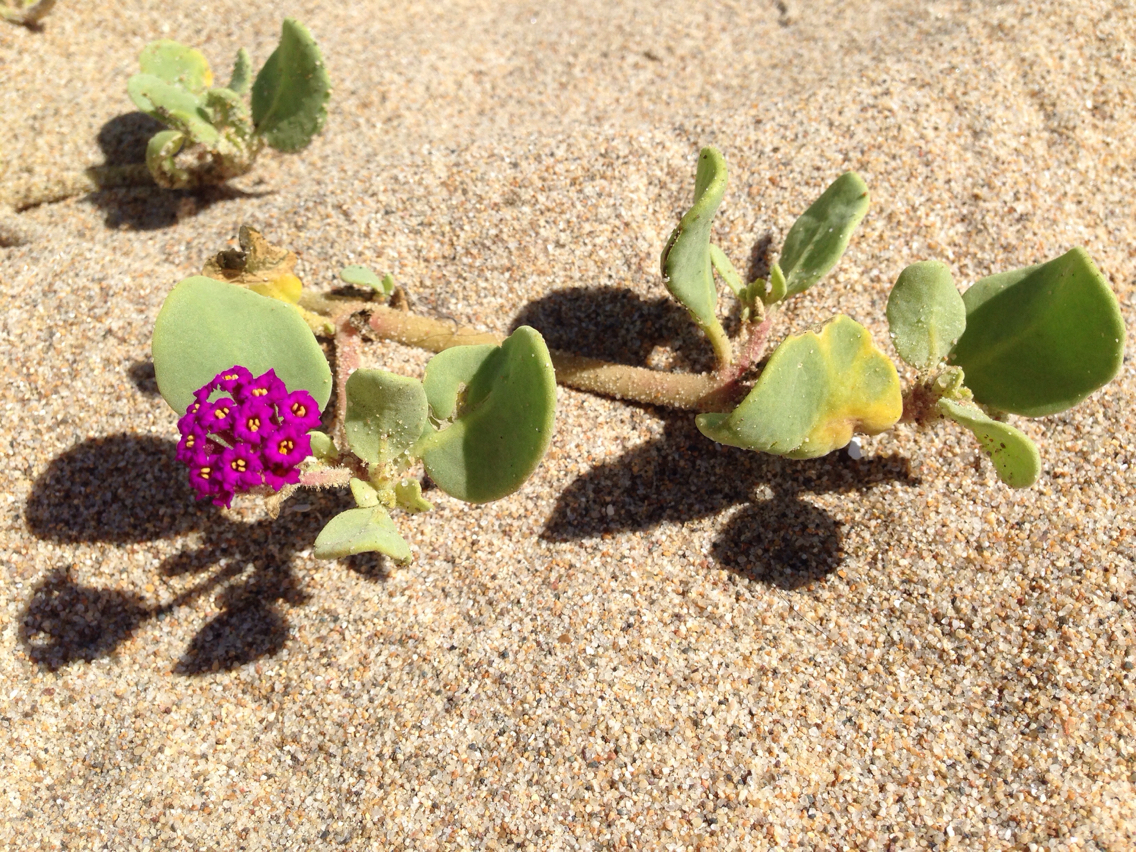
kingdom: Plantae
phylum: Tracheophyta
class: Magnoliopsida
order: Caryophyllales
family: Nyctaginaceae
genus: Abronia
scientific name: Abronia maritima
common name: Red sand-verbena
